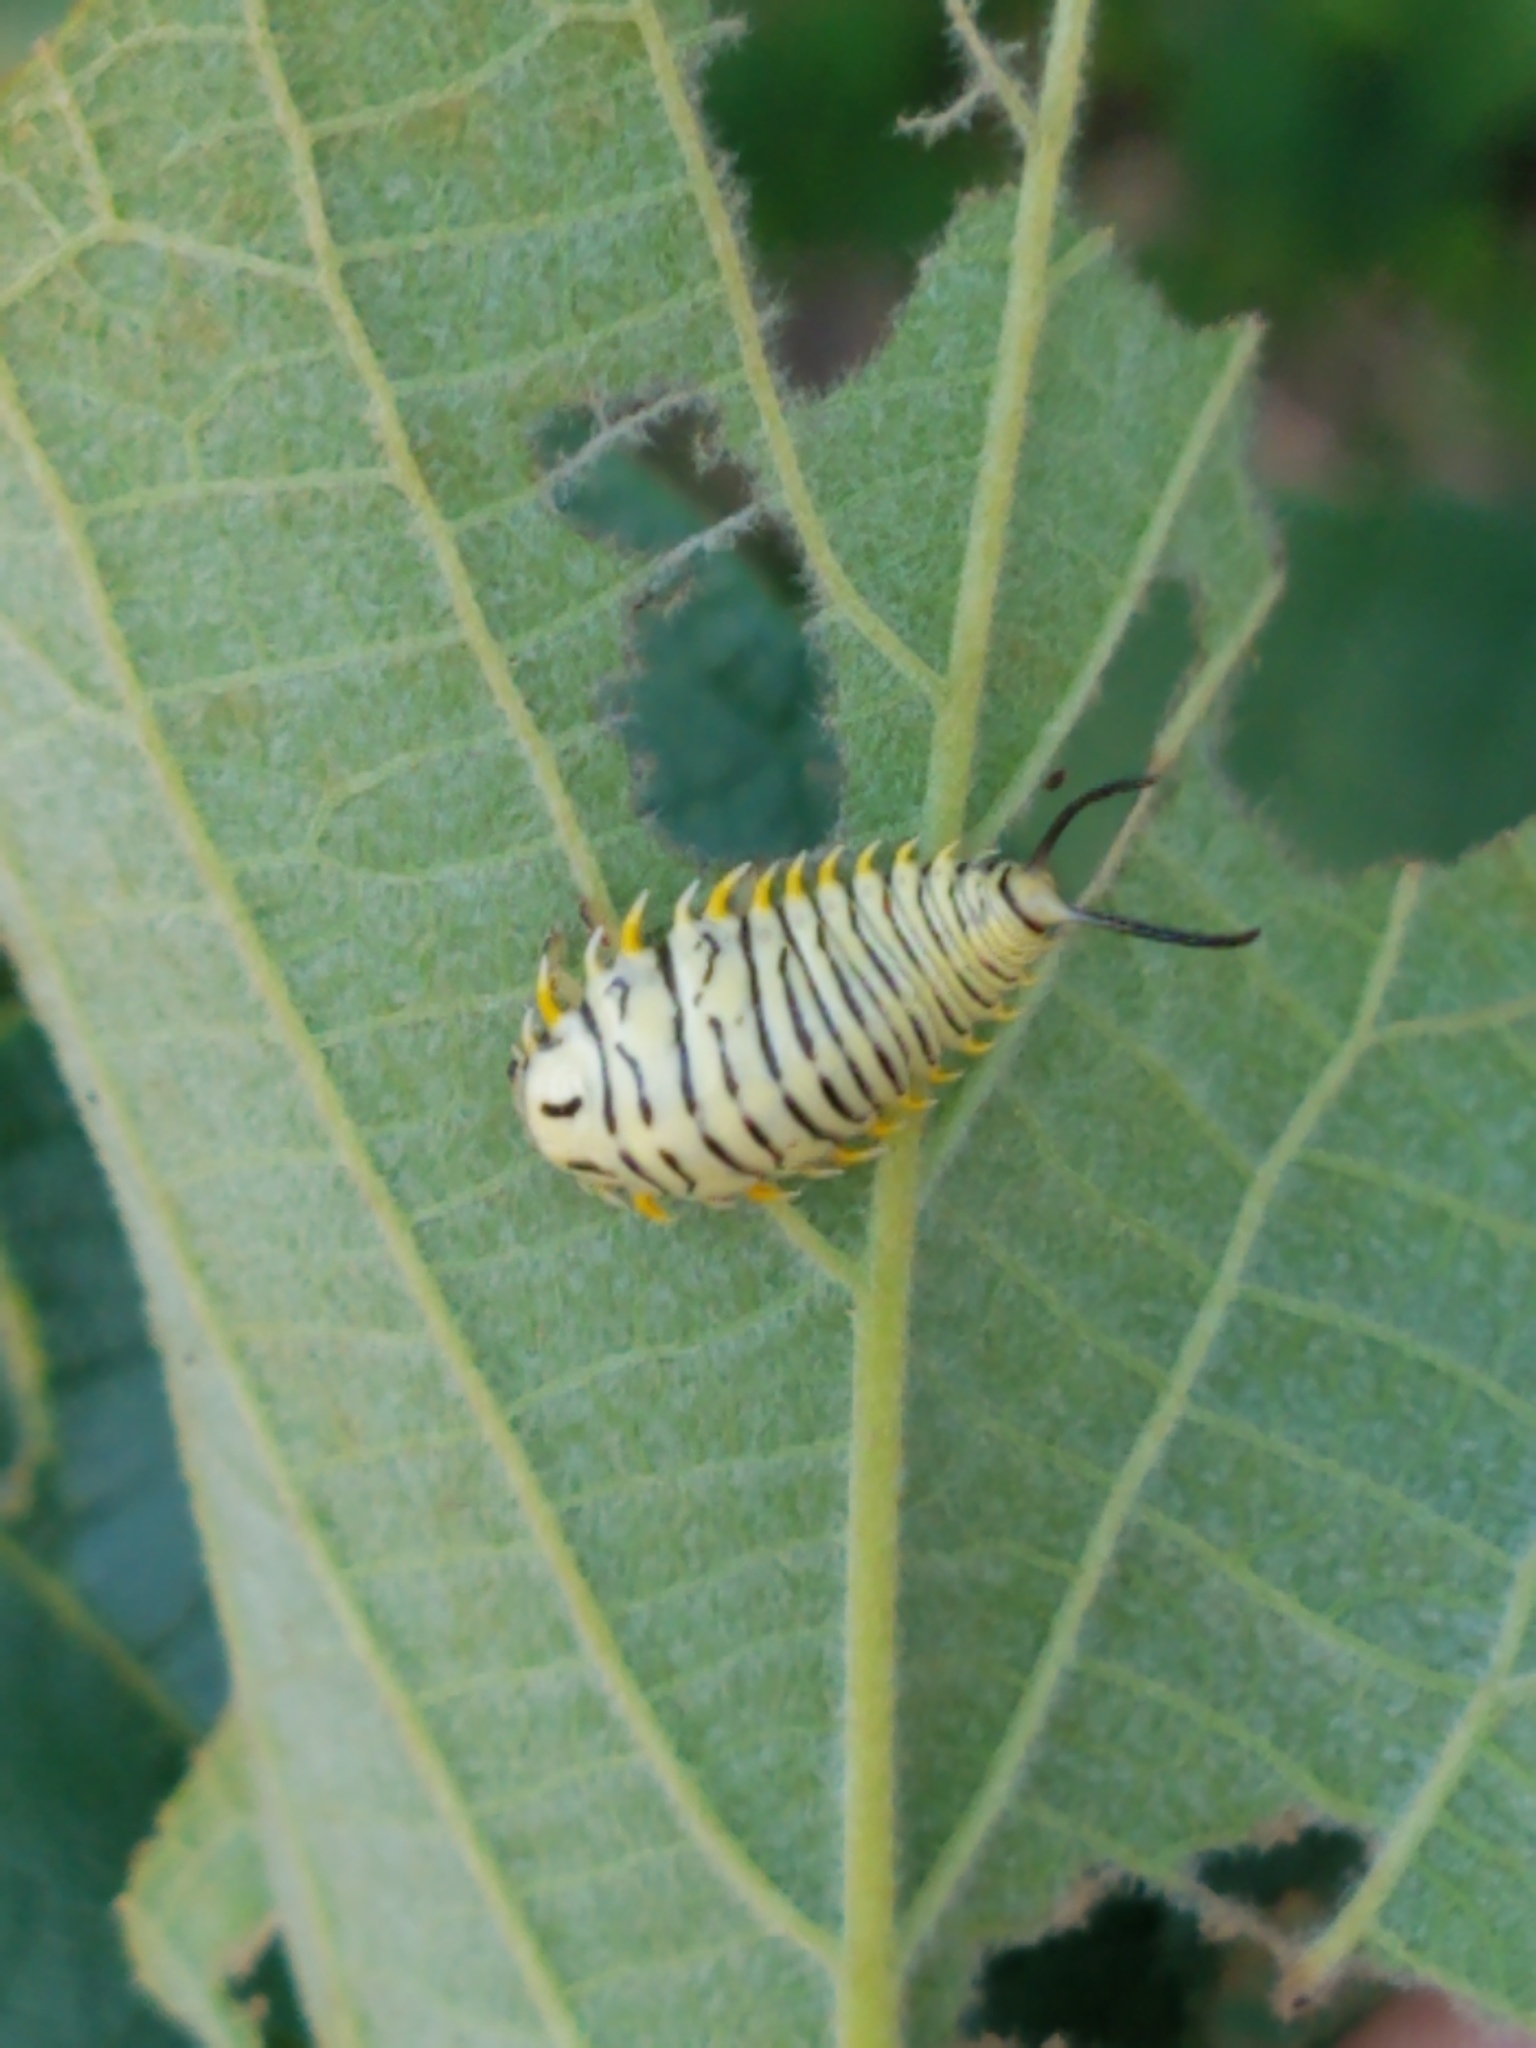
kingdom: Animalia
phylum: Arthropoda
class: Insecta
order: Coleoptera
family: Chrysomelidae
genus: Physonota
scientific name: Physonota alutacea
